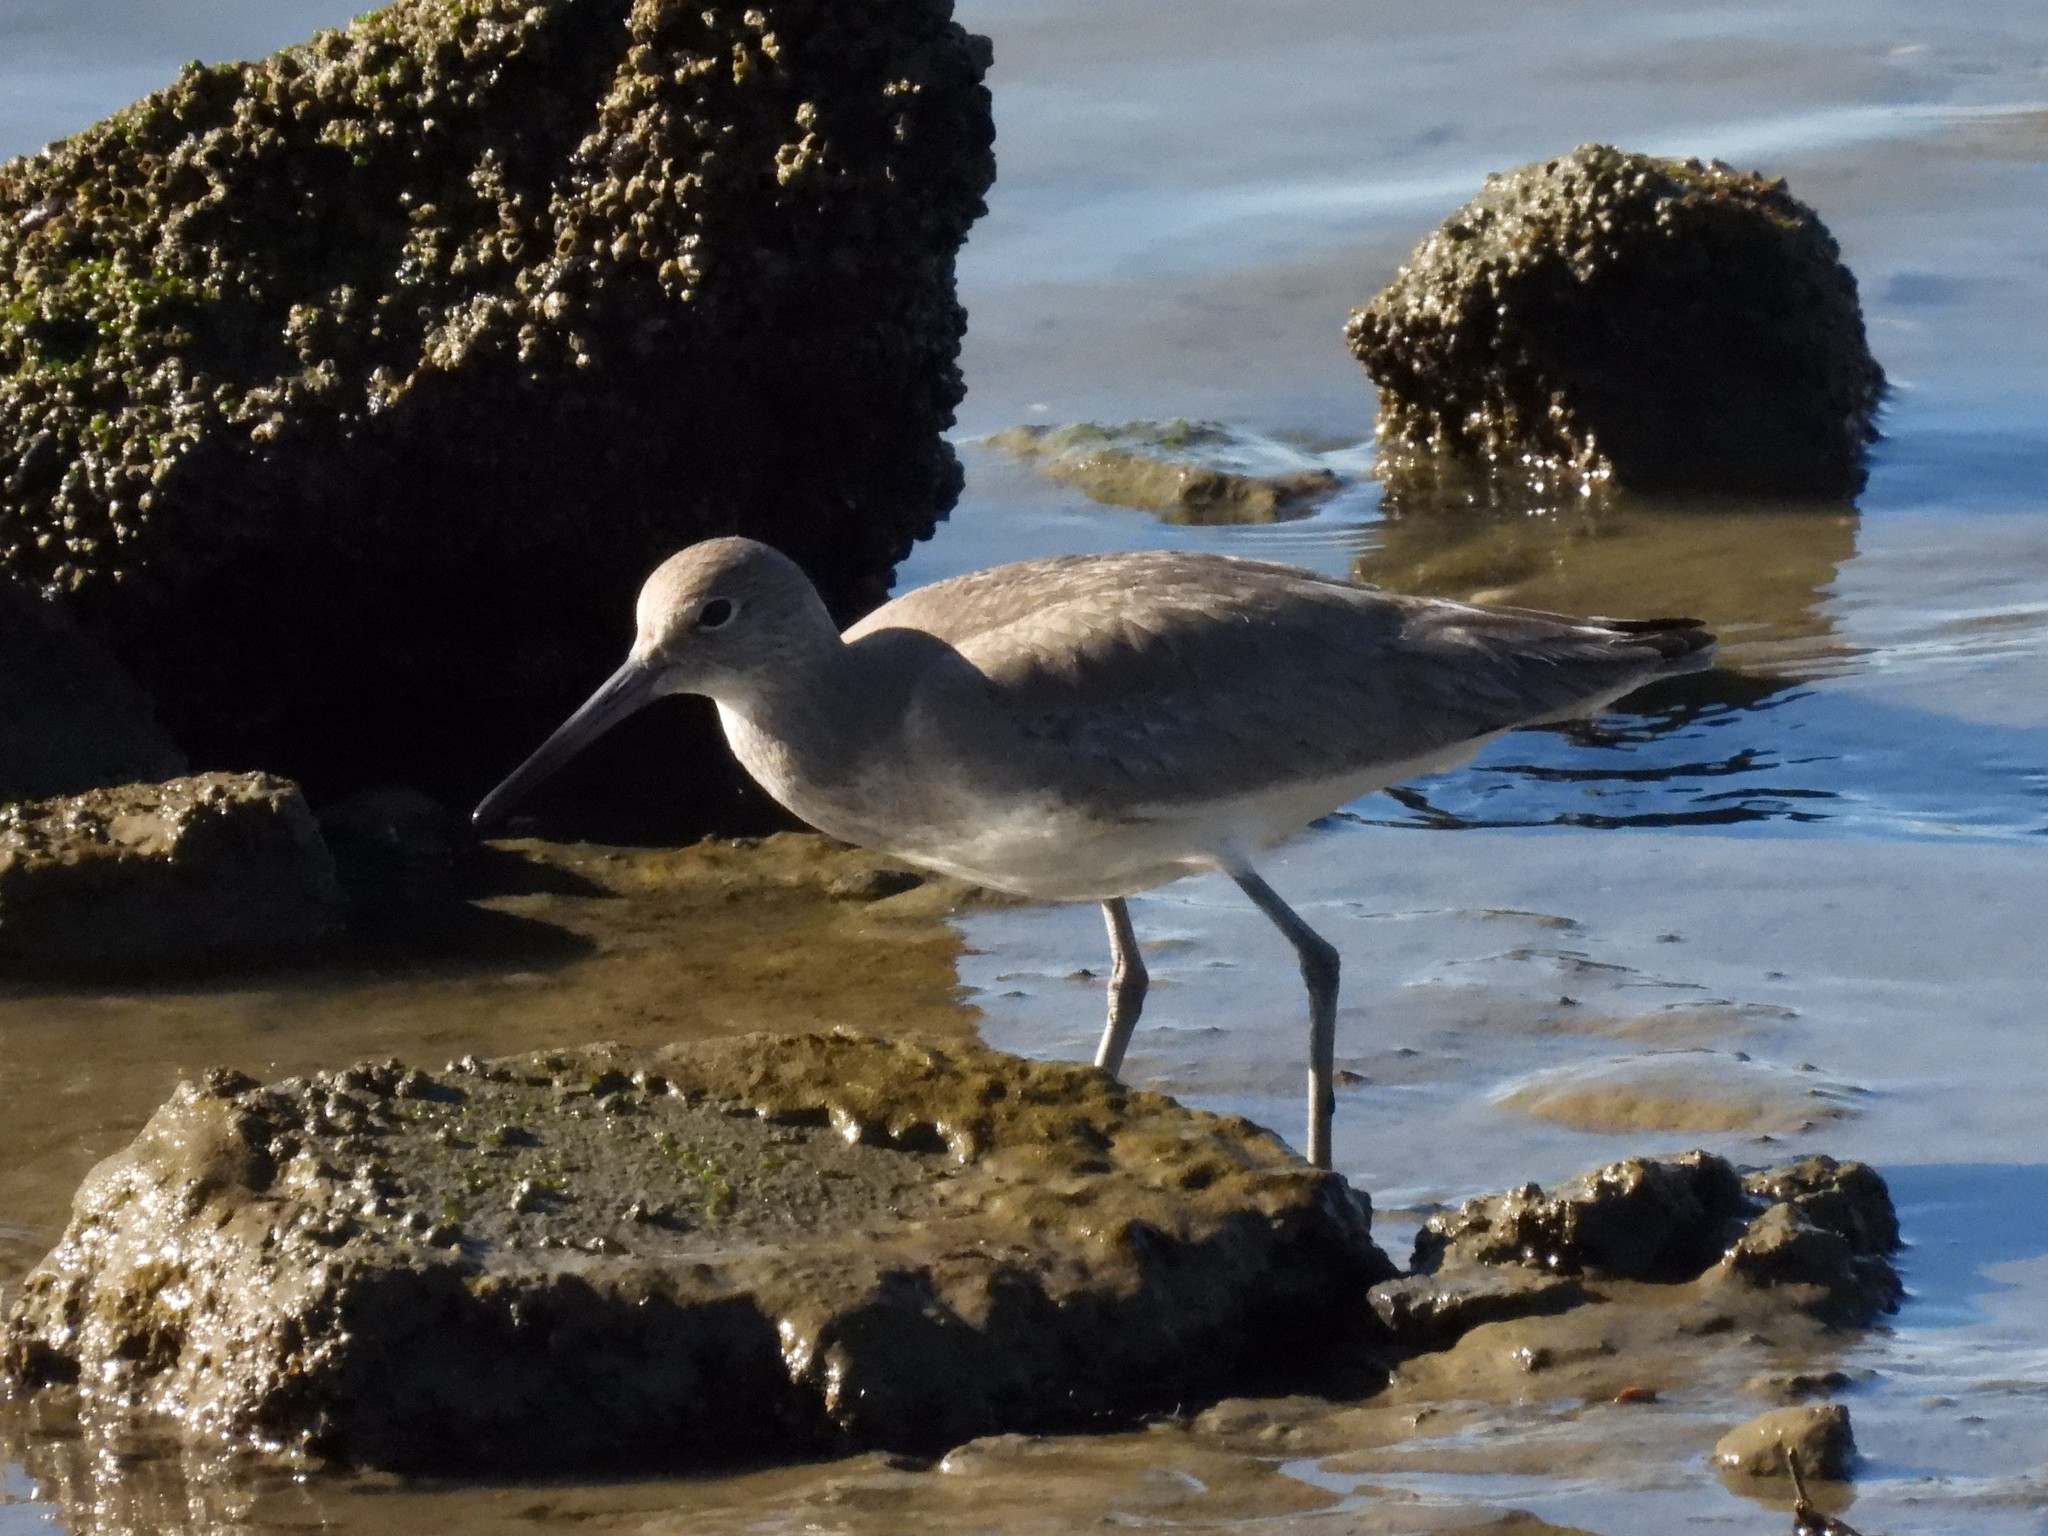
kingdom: Animalia
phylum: Chordata
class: Aves
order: Charadriiformes
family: Scolopacidae
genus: Tringa
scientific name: Tringa semipalmata
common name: Willet
